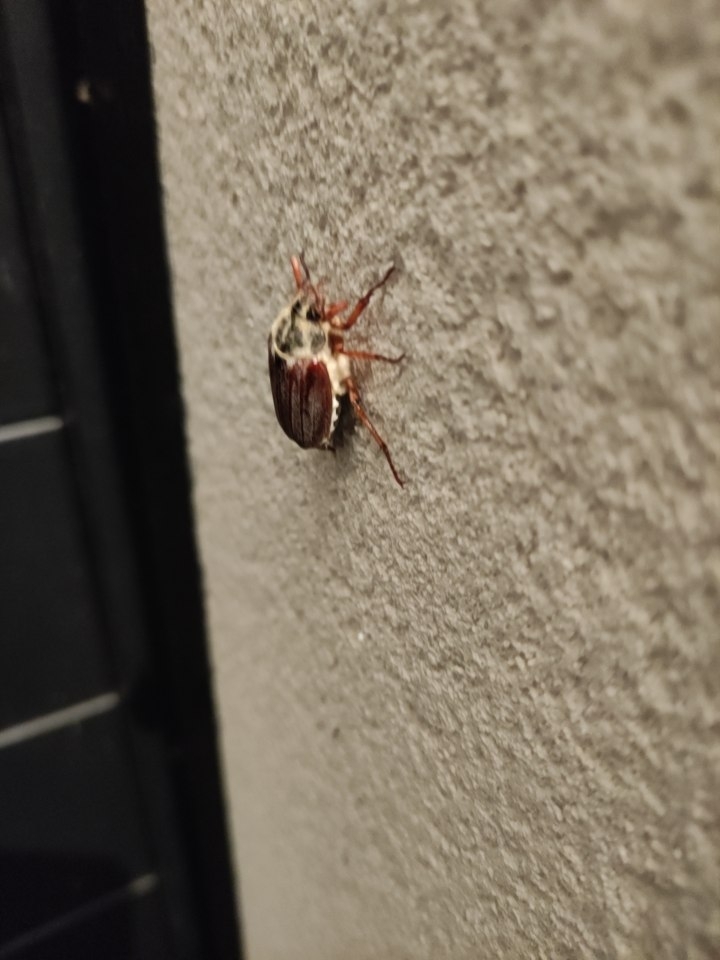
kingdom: Animalia
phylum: Arthropoda
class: Insecta
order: Coleoptera
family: Scarabaeidae
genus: Melolontha
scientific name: Melolontha melolontha
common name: Cockchafer maybeetle
